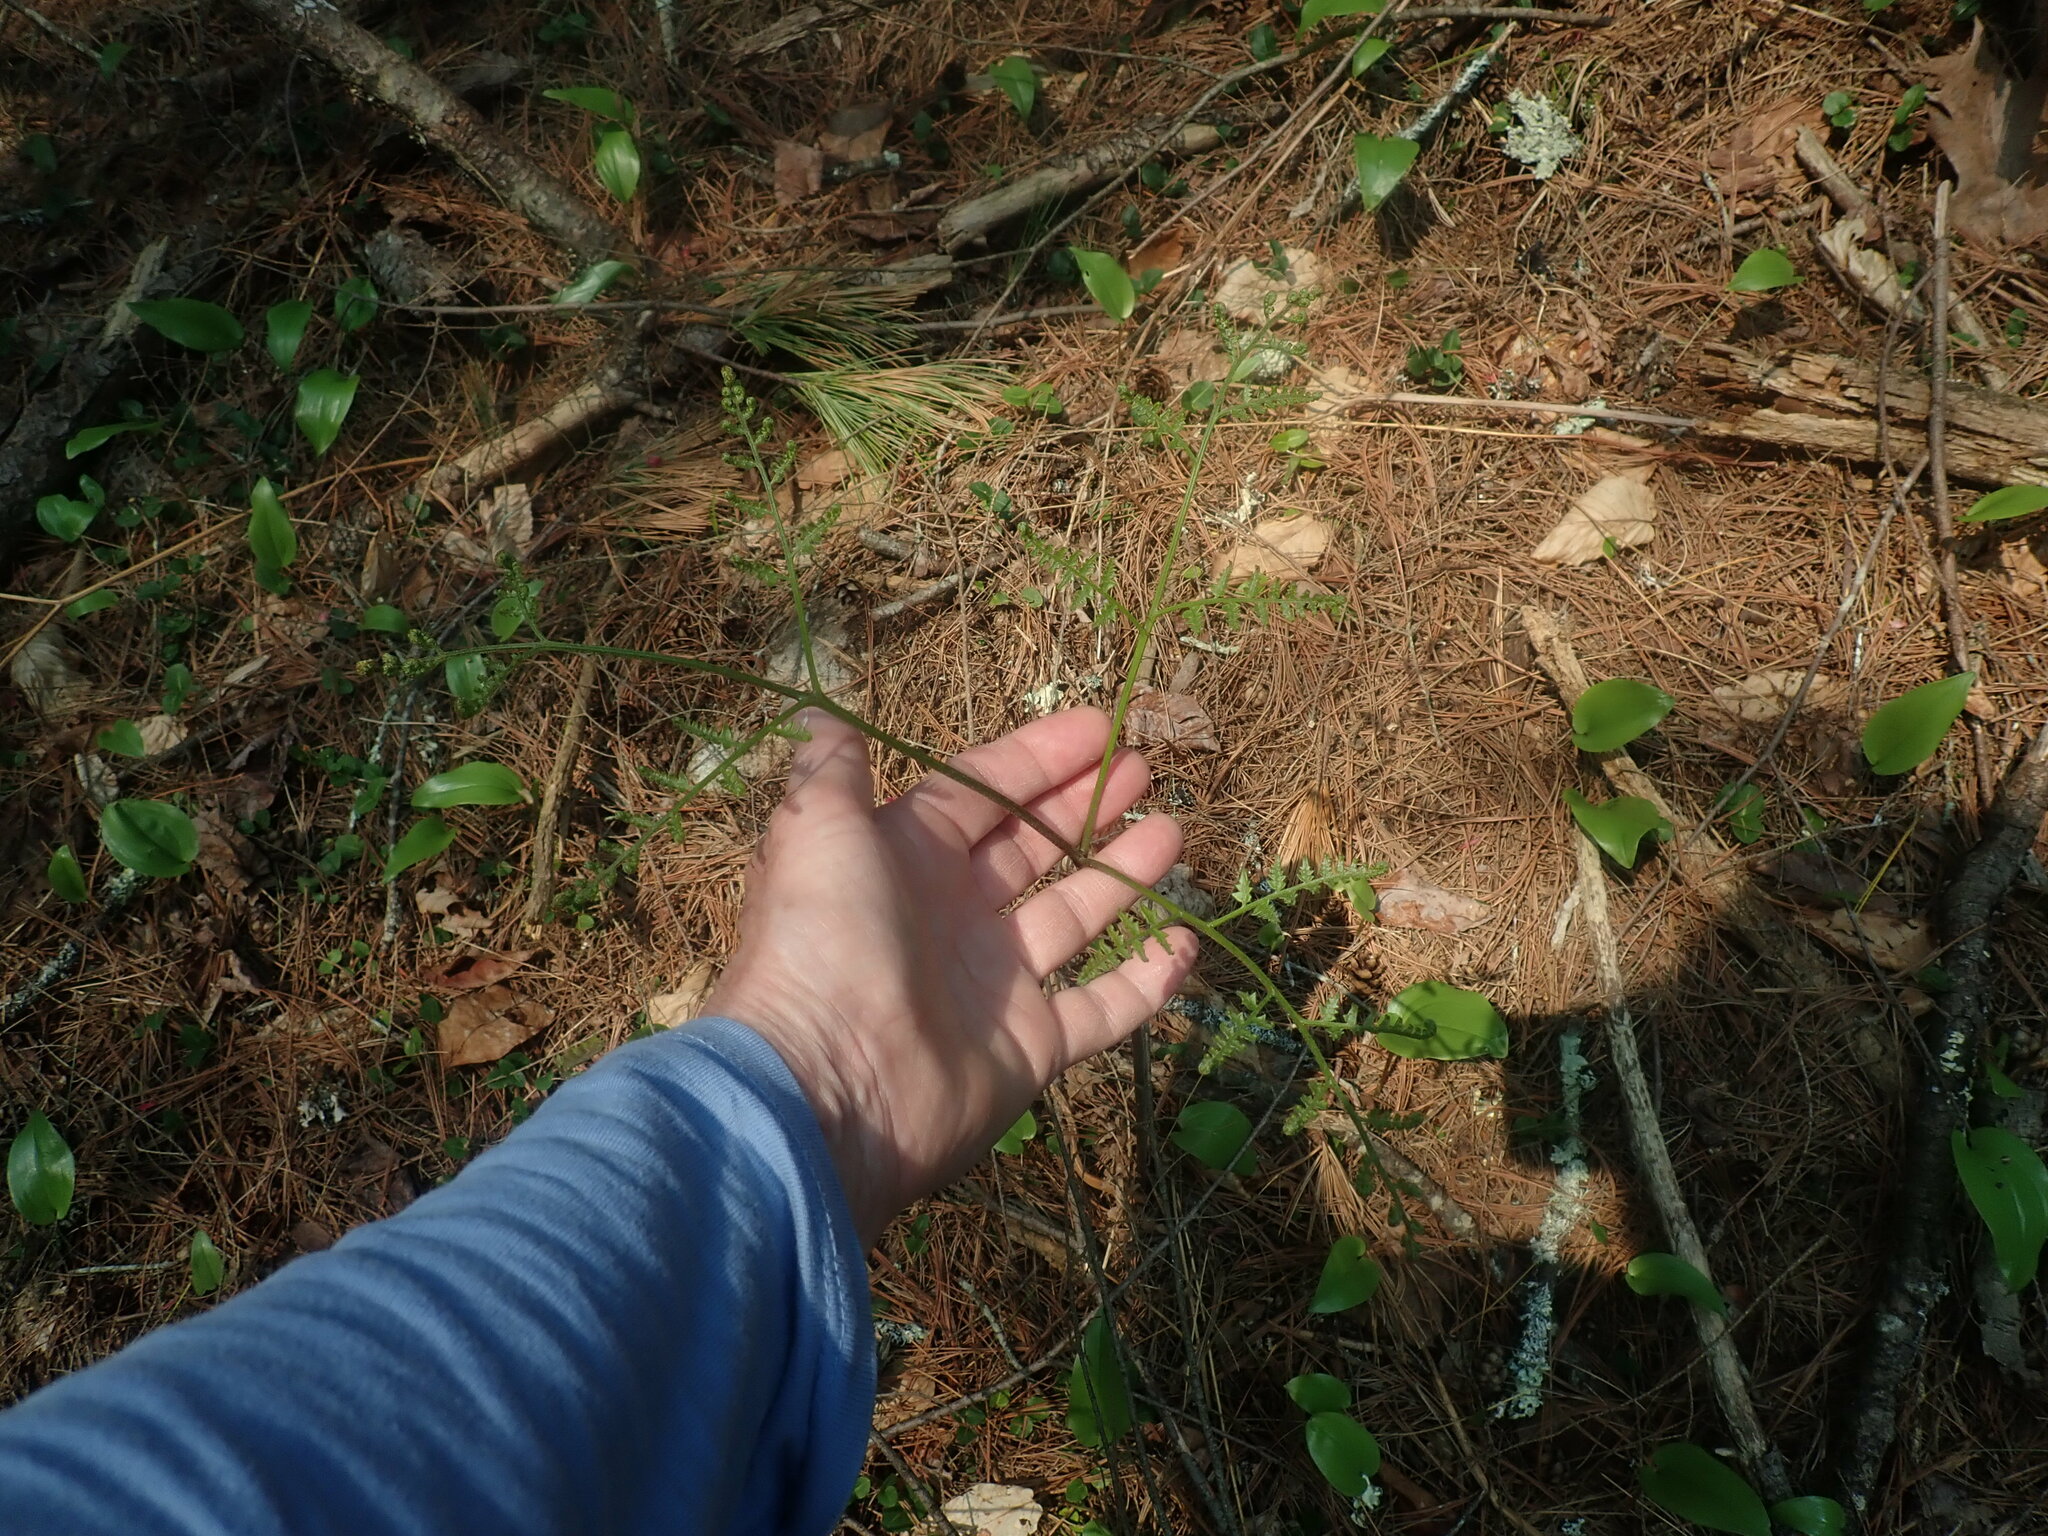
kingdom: Plantae
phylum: Tracheophyta
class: Polypodiopsida
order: Polypodiales
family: Dennstaedtiaceae
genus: Pteridium
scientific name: Pteridium aquilinum
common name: Bracken
